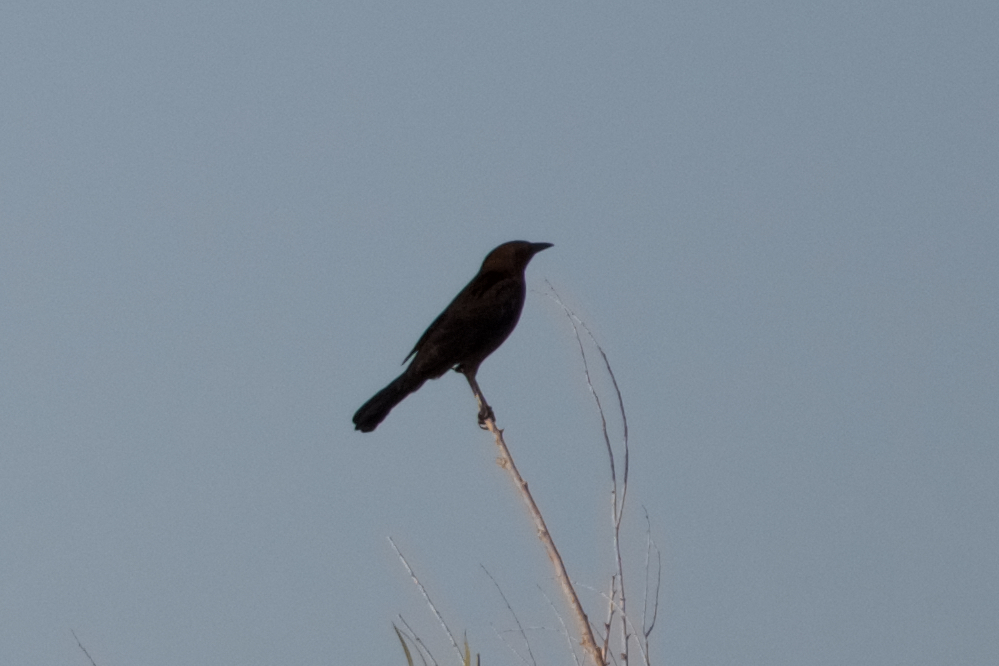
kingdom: Animalia
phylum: Chordata
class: Aves
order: Passeriformes
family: Icteridae
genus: Euphagus
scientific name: Euphagus cyanocephalus
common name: Brewer's blackbird
